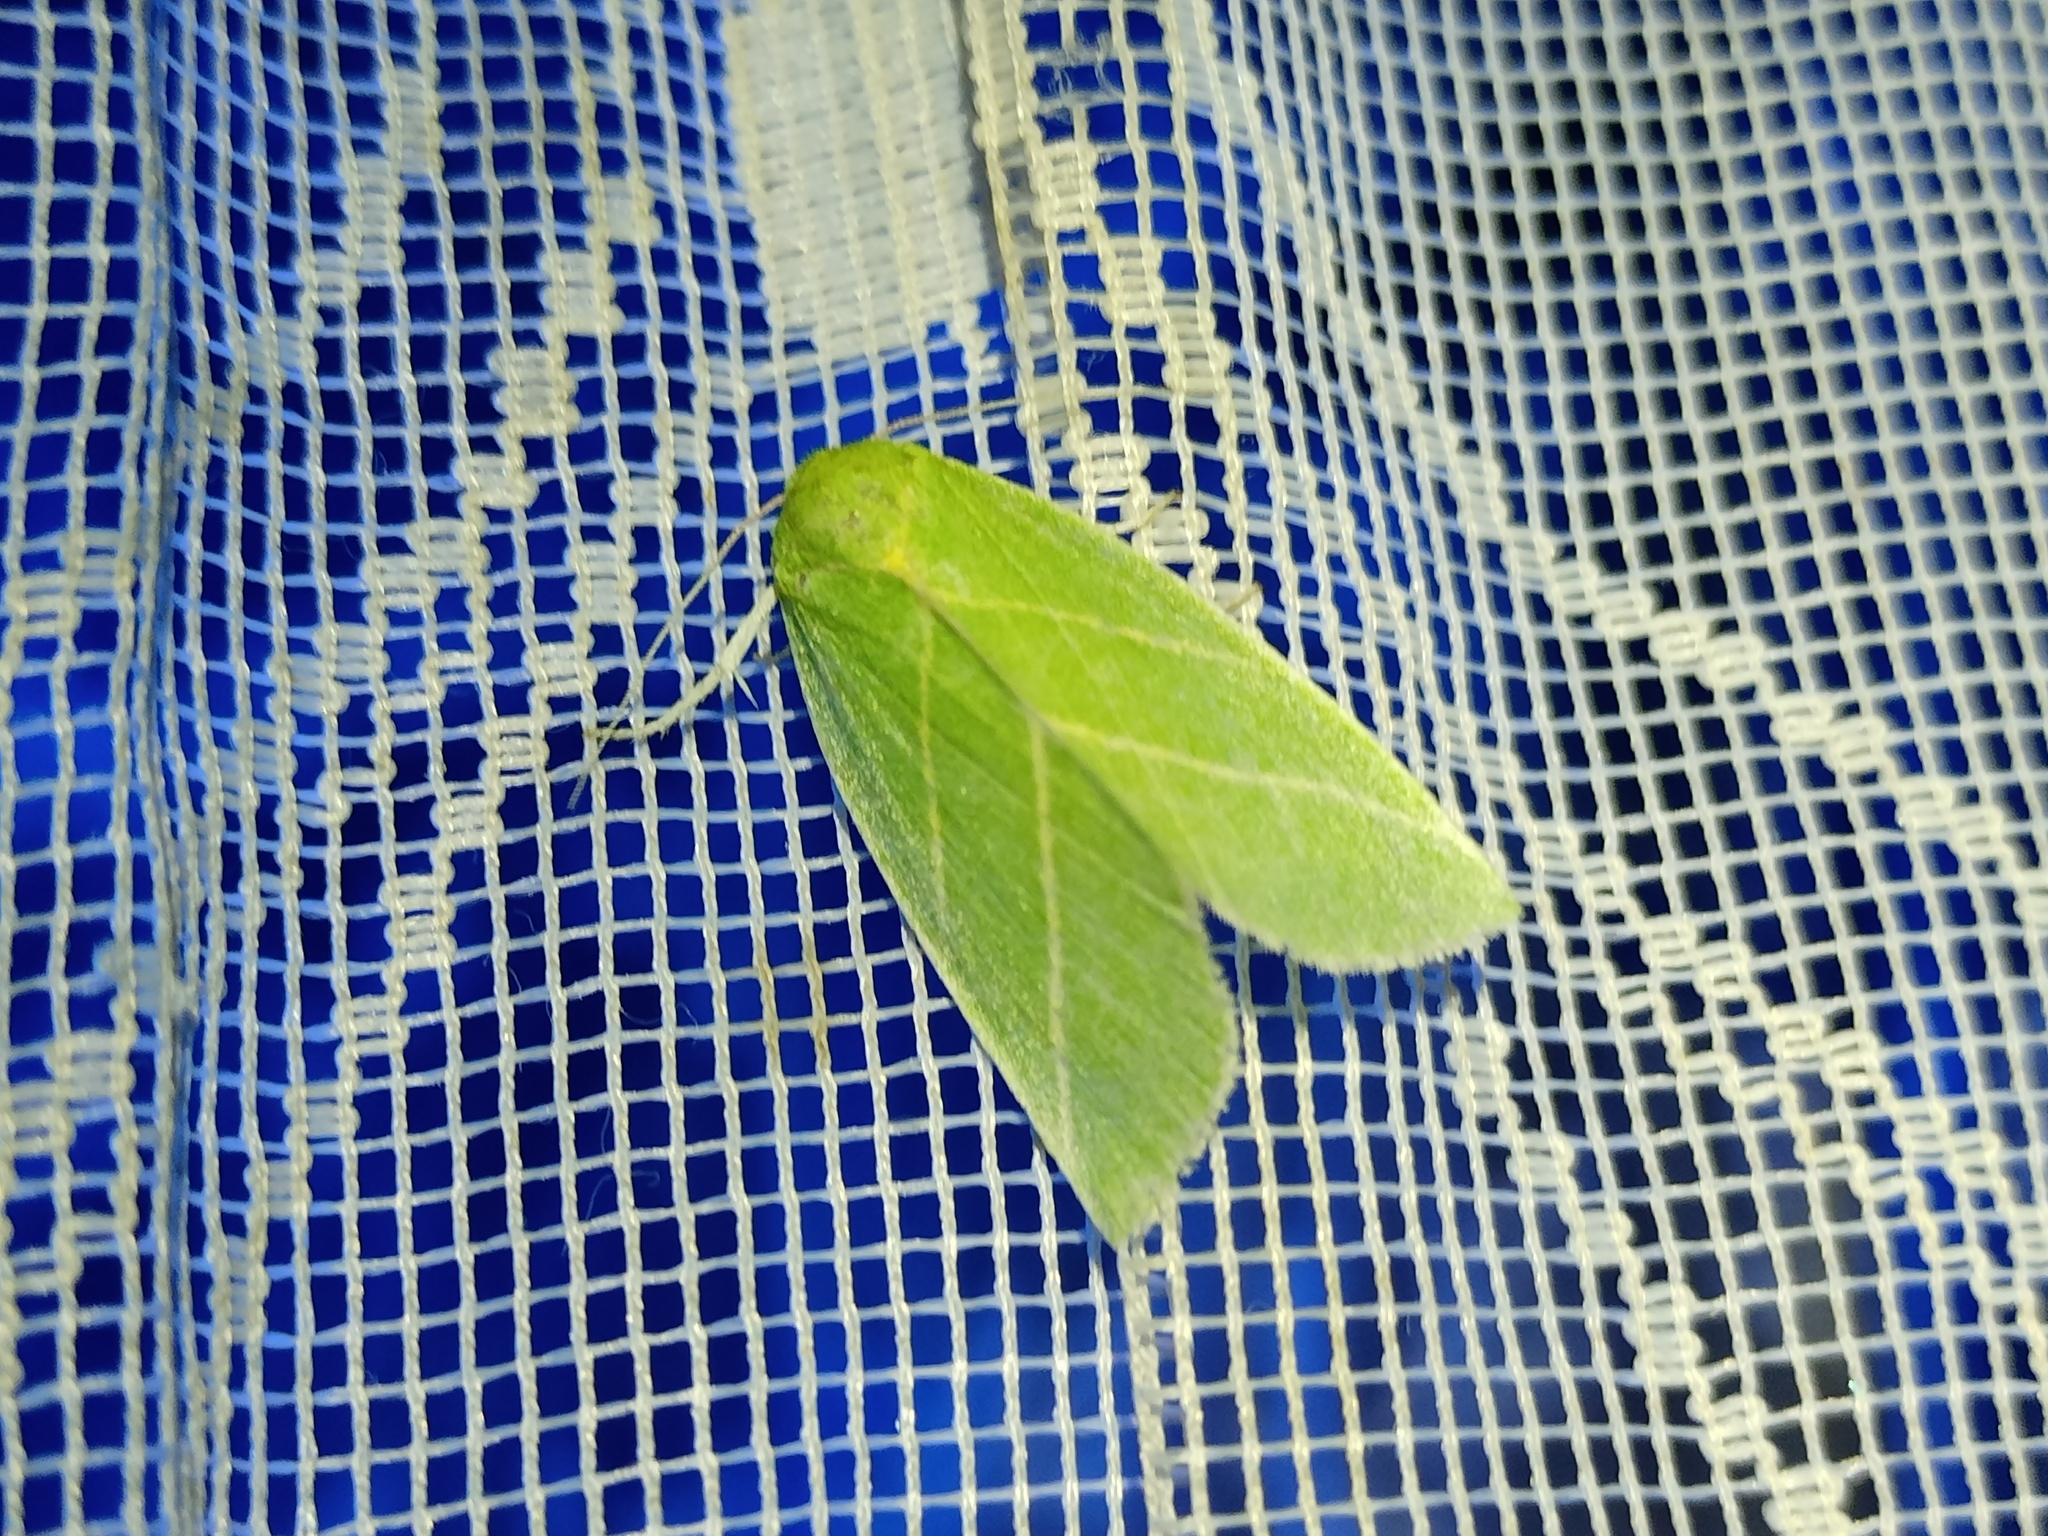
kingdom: Animalia
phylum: Arthropoda
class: Insecta
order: Lepidoptera
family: Nolidae
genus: Bena
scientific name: Bena bicolorana
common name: Scarce silver-lines
